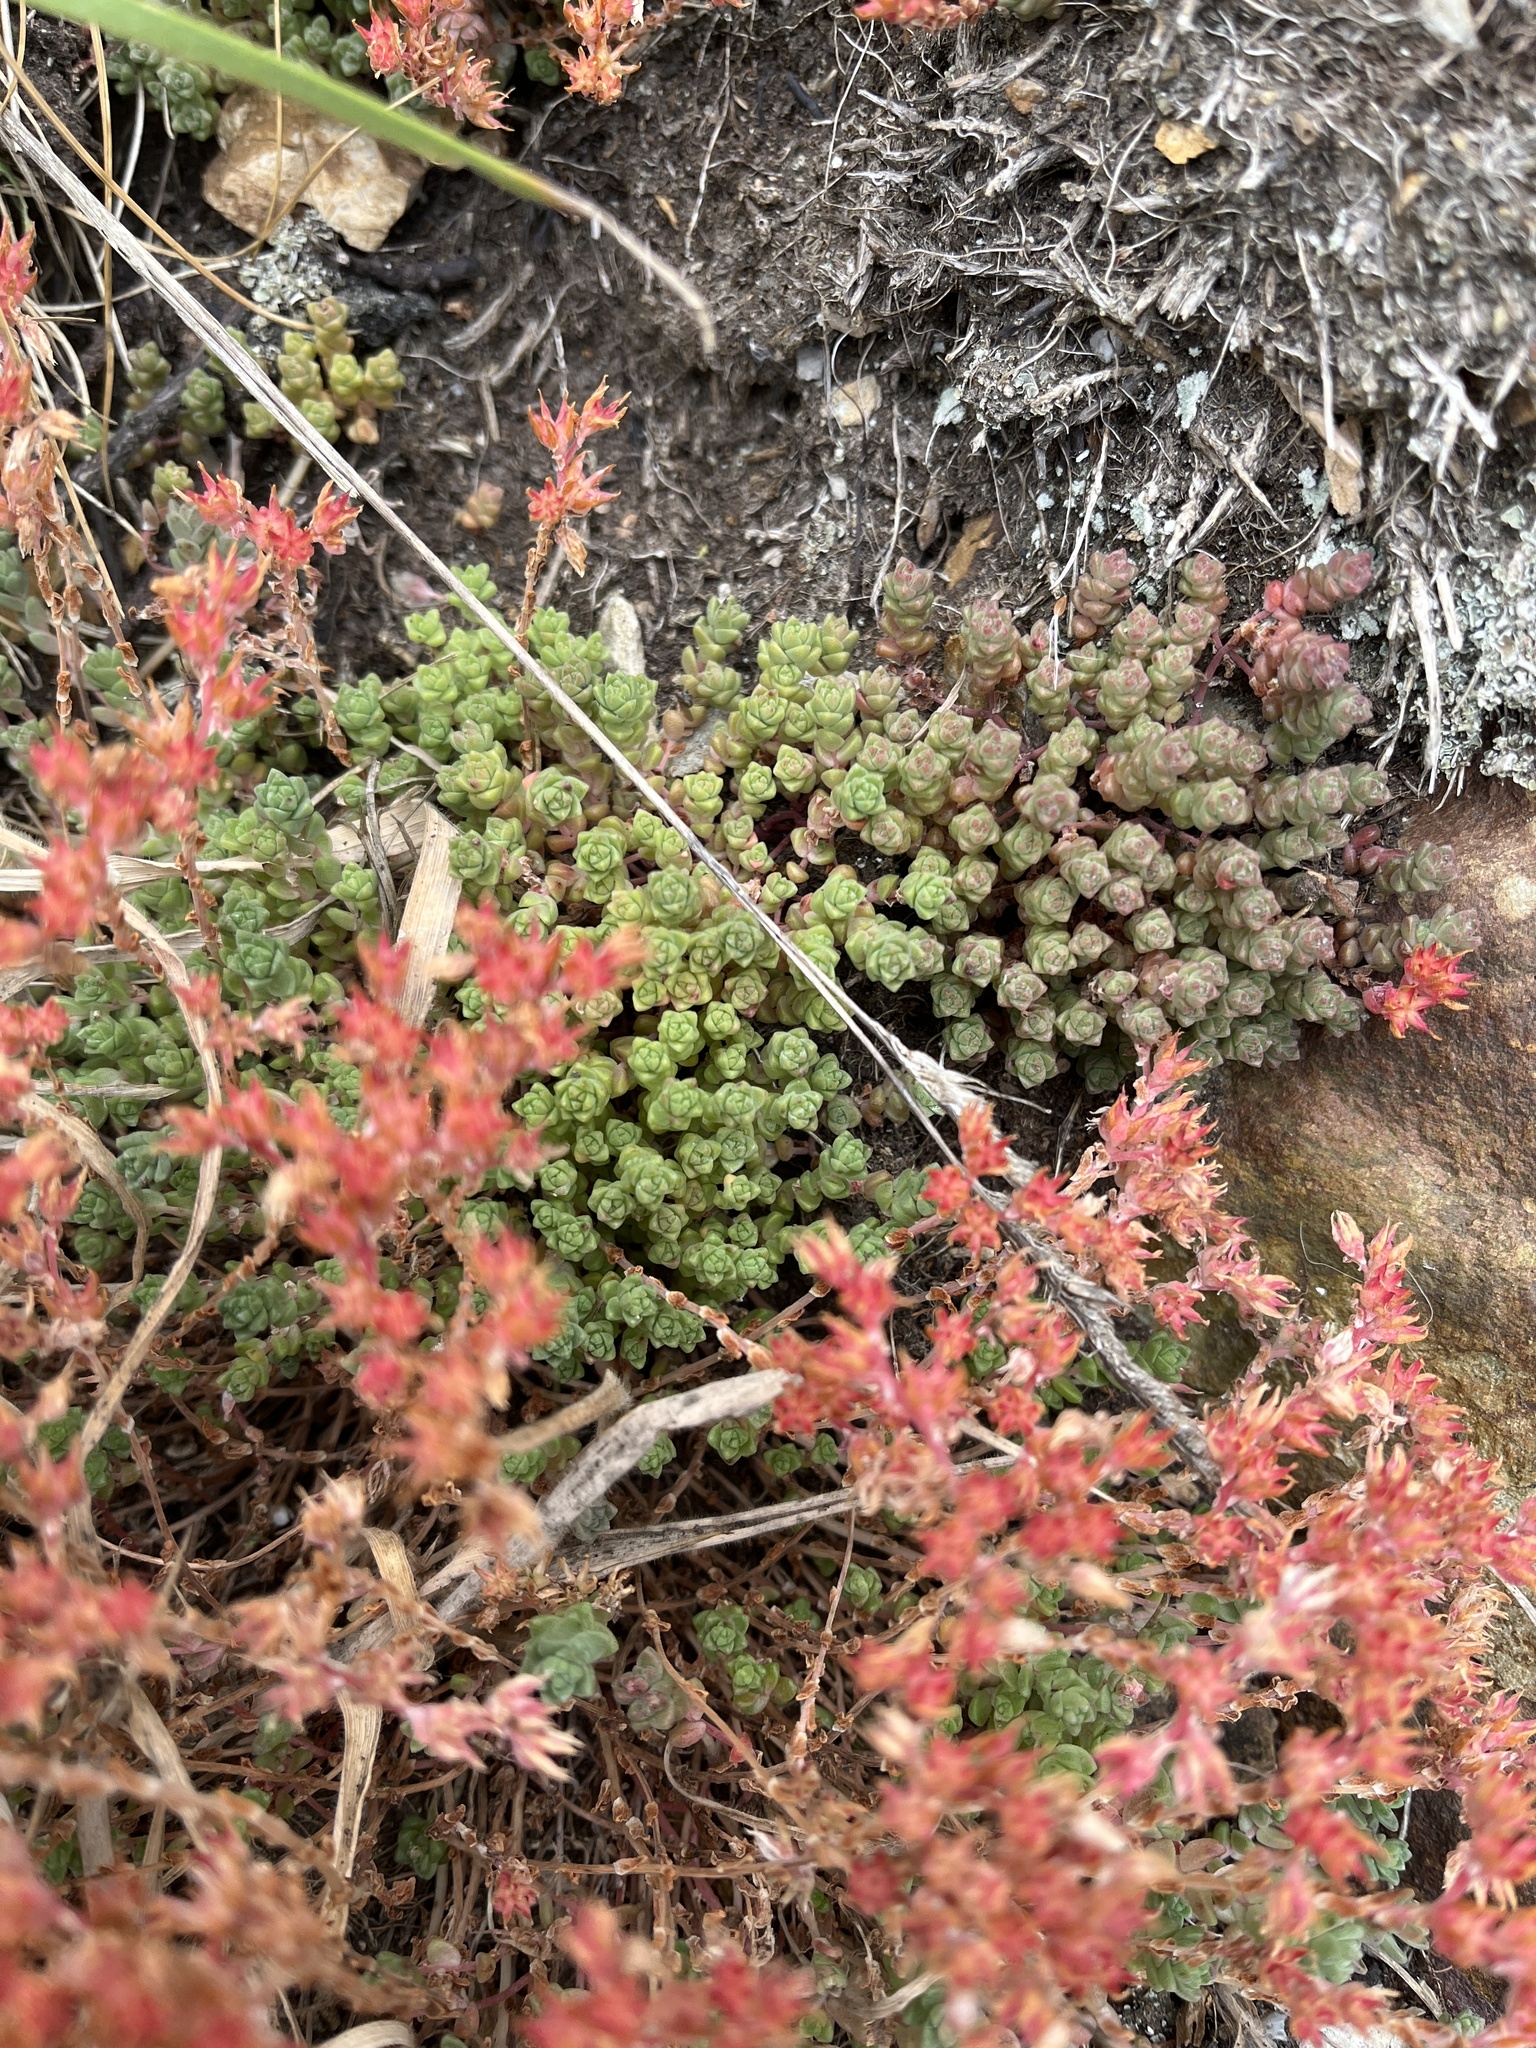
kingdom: Plantae
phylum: Tracheophyta
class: Magnoliopsida
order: Saxifragales
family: Crassulaceae
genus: Sedum
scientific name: Sedum anglicum
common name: English stonecrop
